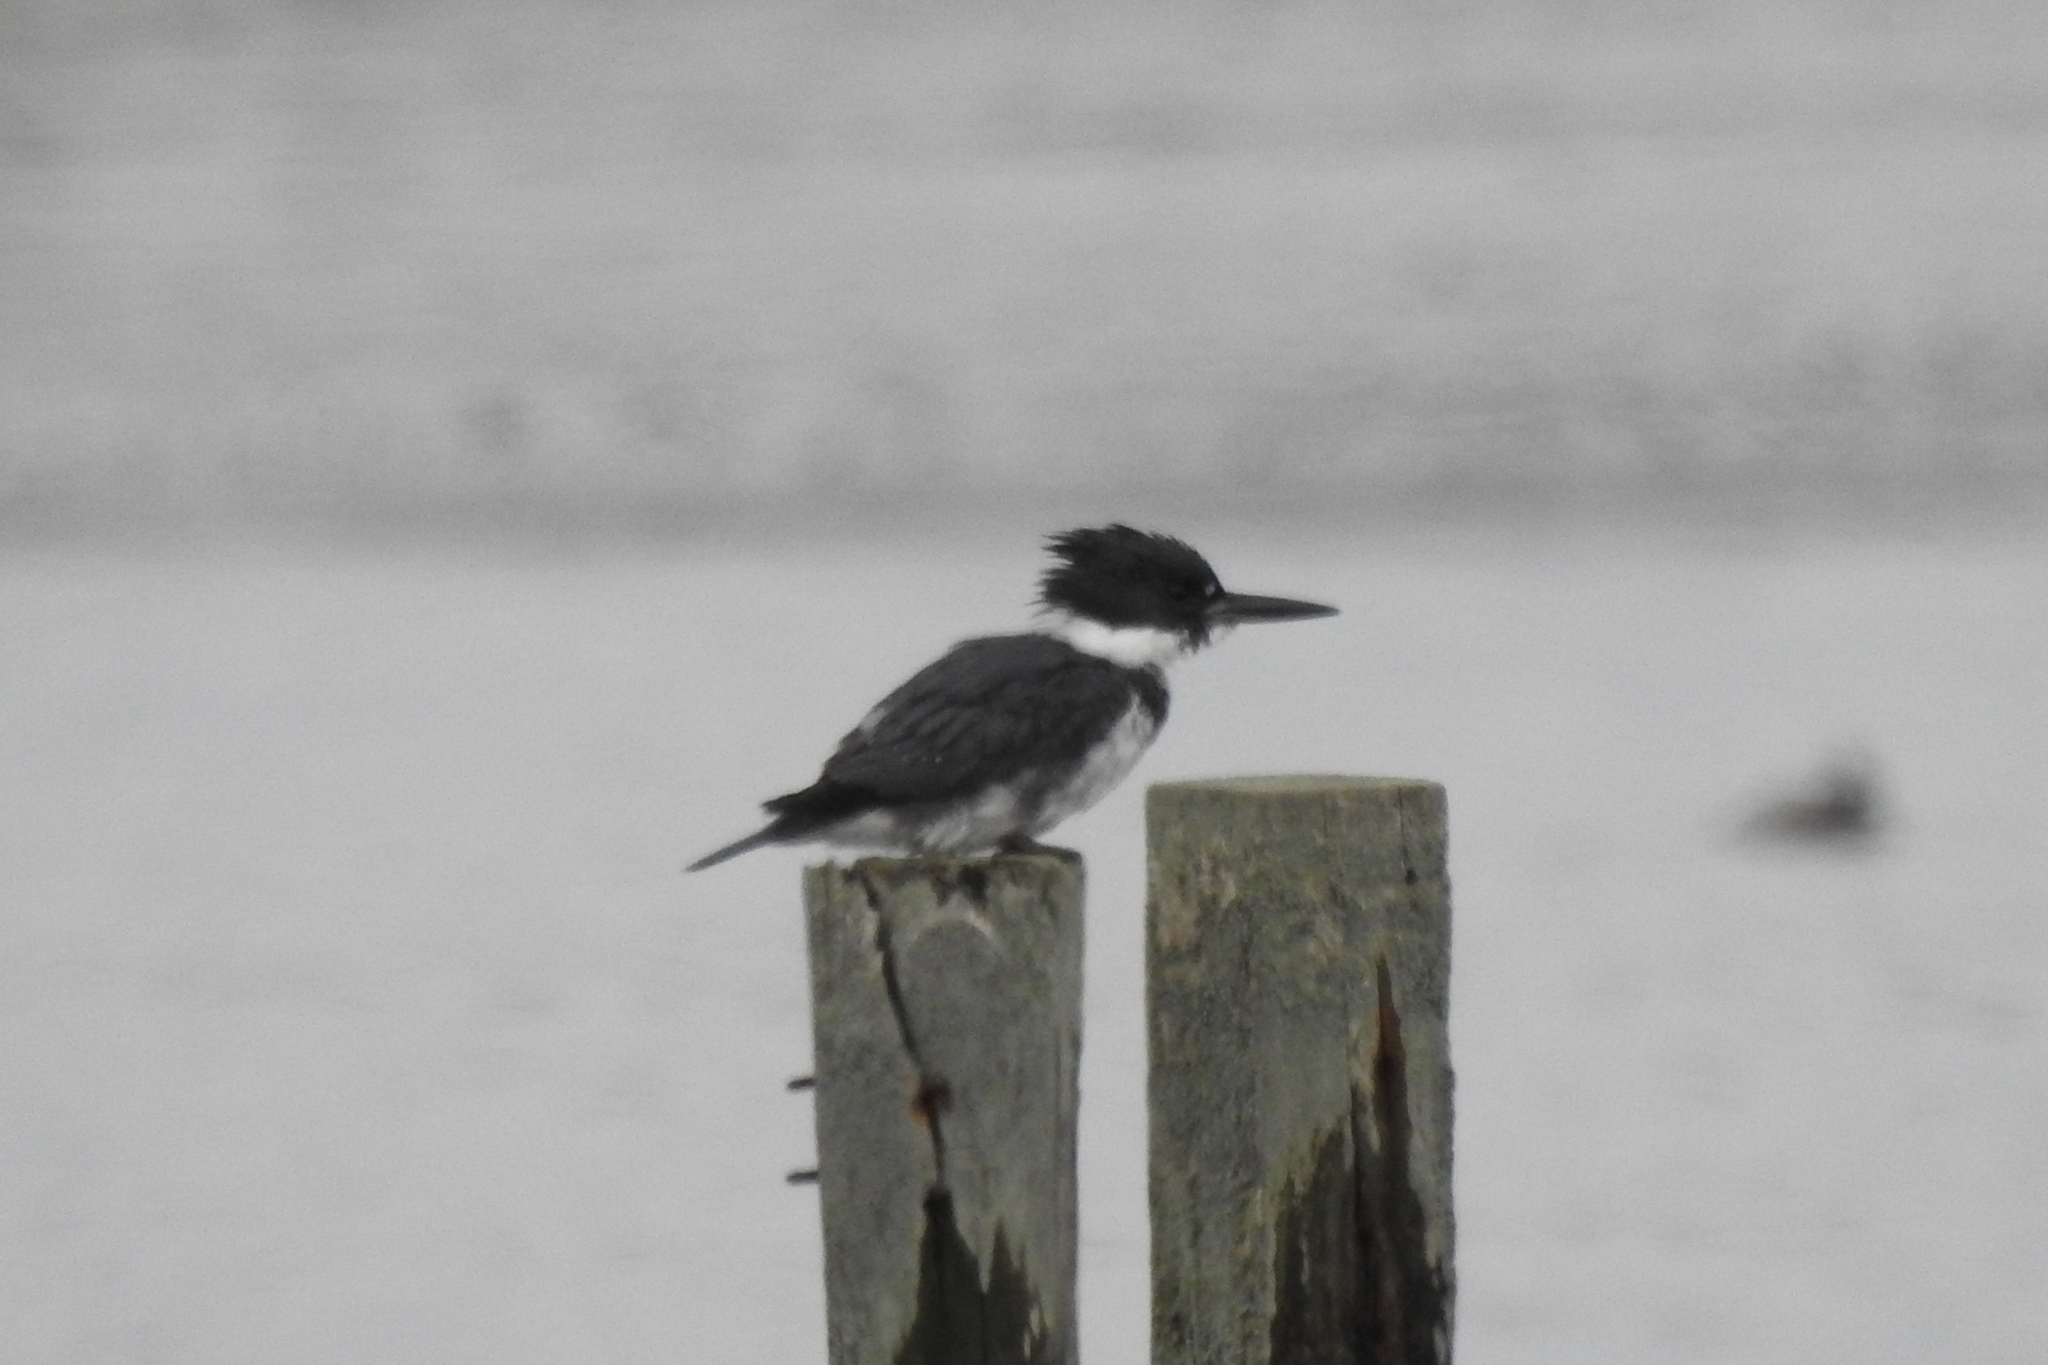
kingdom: Animalia
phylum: Chordata
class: Aves
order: Coraciiformes
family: Alcedinidae
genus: Megaceryle
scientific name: Megaceryle alcyon
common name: Belted kingfisher
